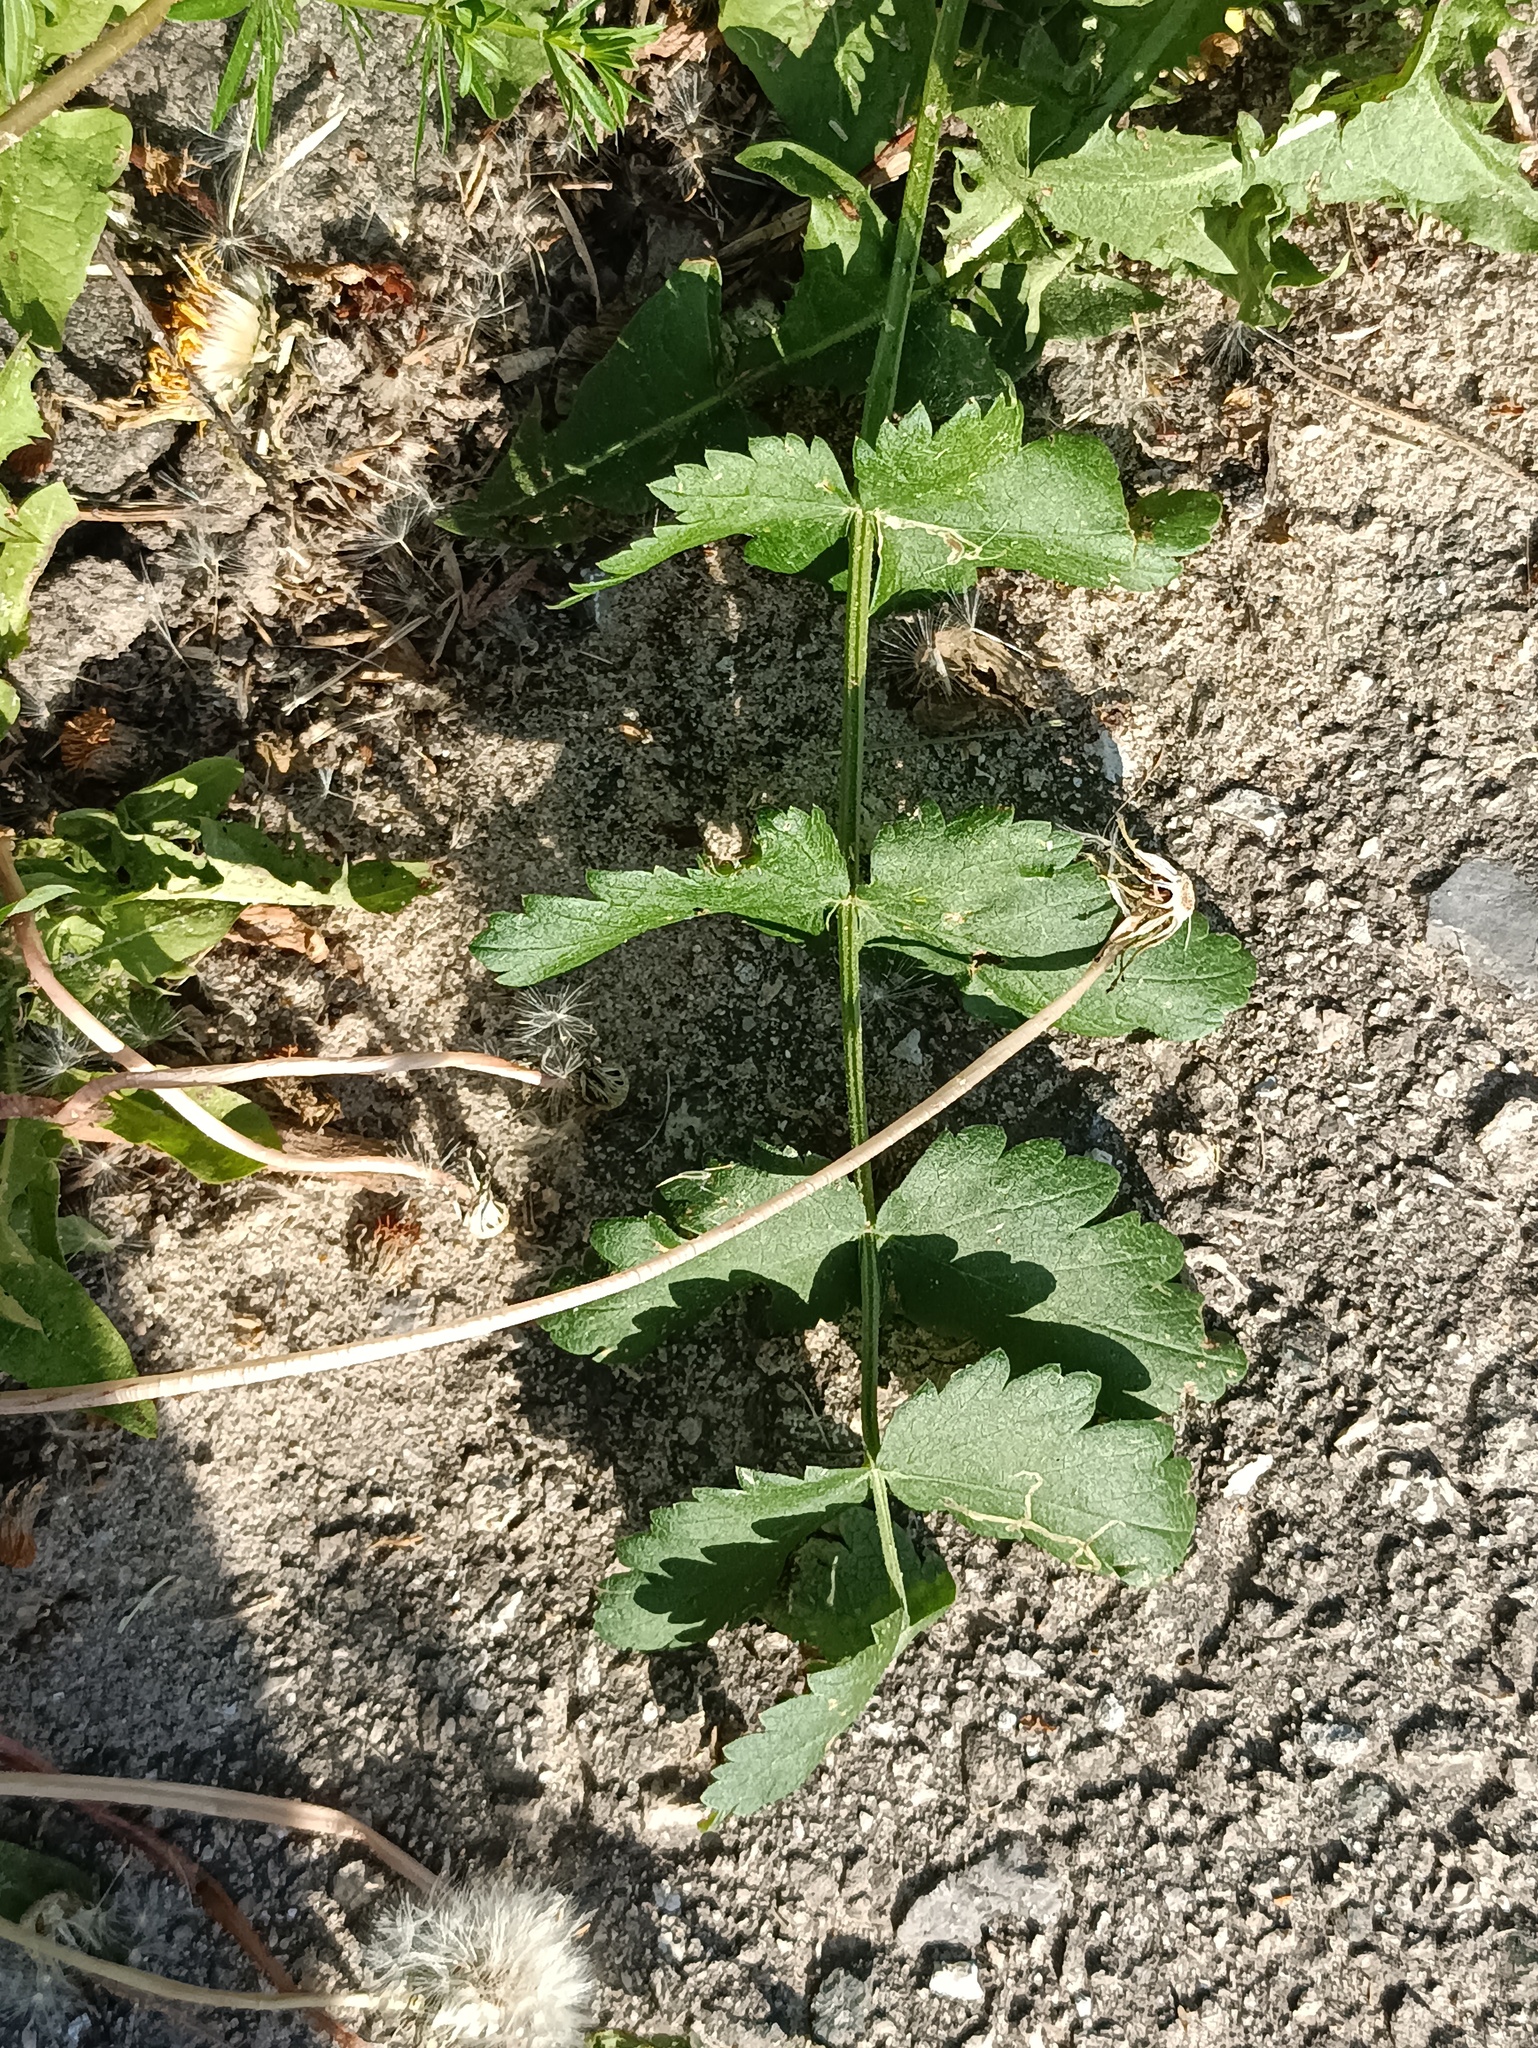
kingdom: Plantae
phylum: Tracheophyta
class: Magnoliopsida
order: Apiales
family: Apiaceae
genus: Pimpinella
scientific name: Pimpinella saxifraga
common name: Burnet-saxifrage
